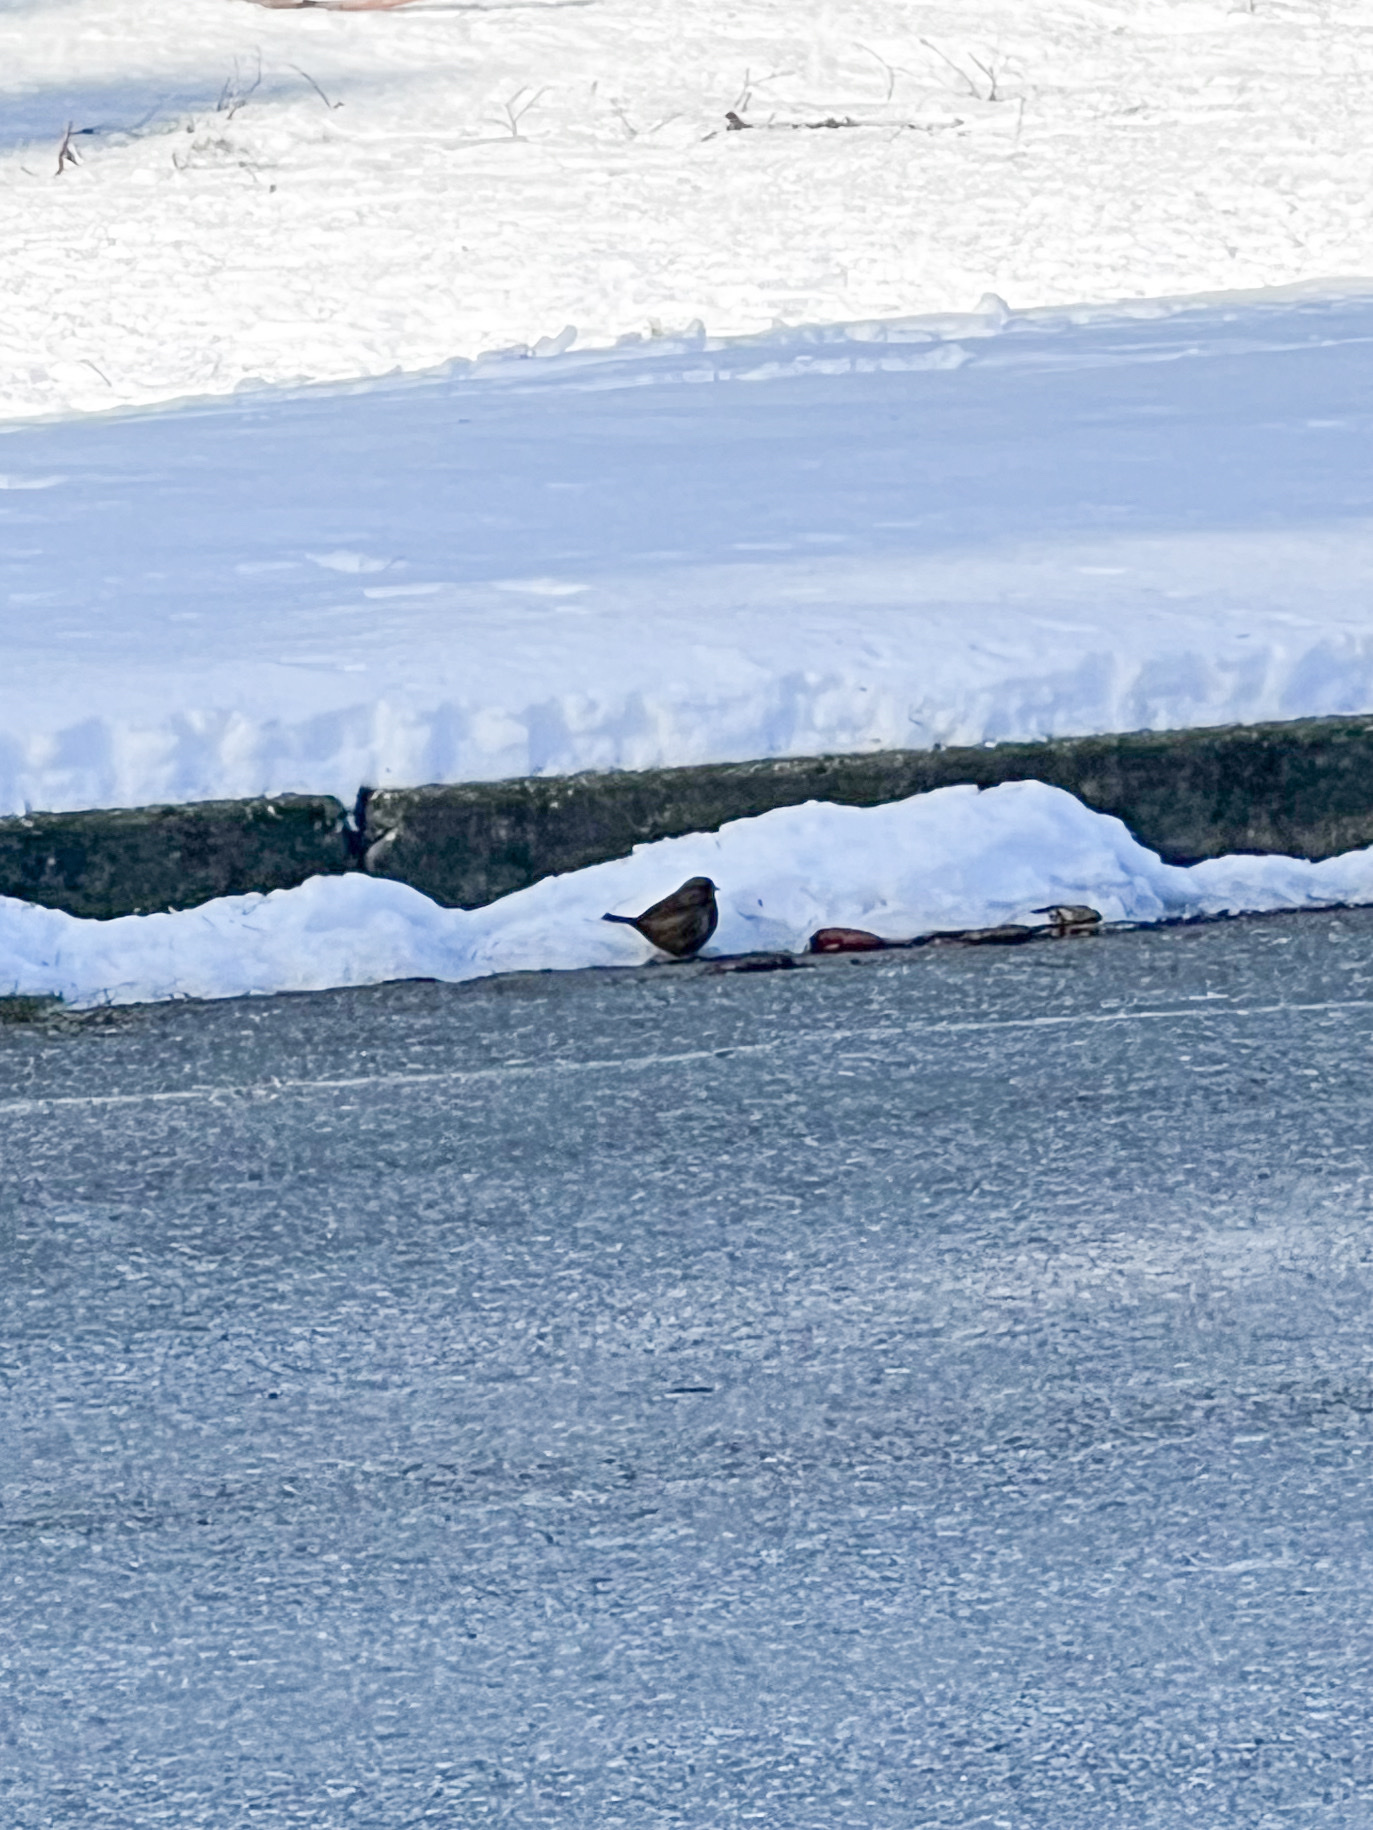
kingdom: Animalia
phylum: Chordata
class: Aves
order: Passeriformes
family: Passerellidae
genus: Melospiza
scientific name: Melospiza melodia
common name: Song sparrow
